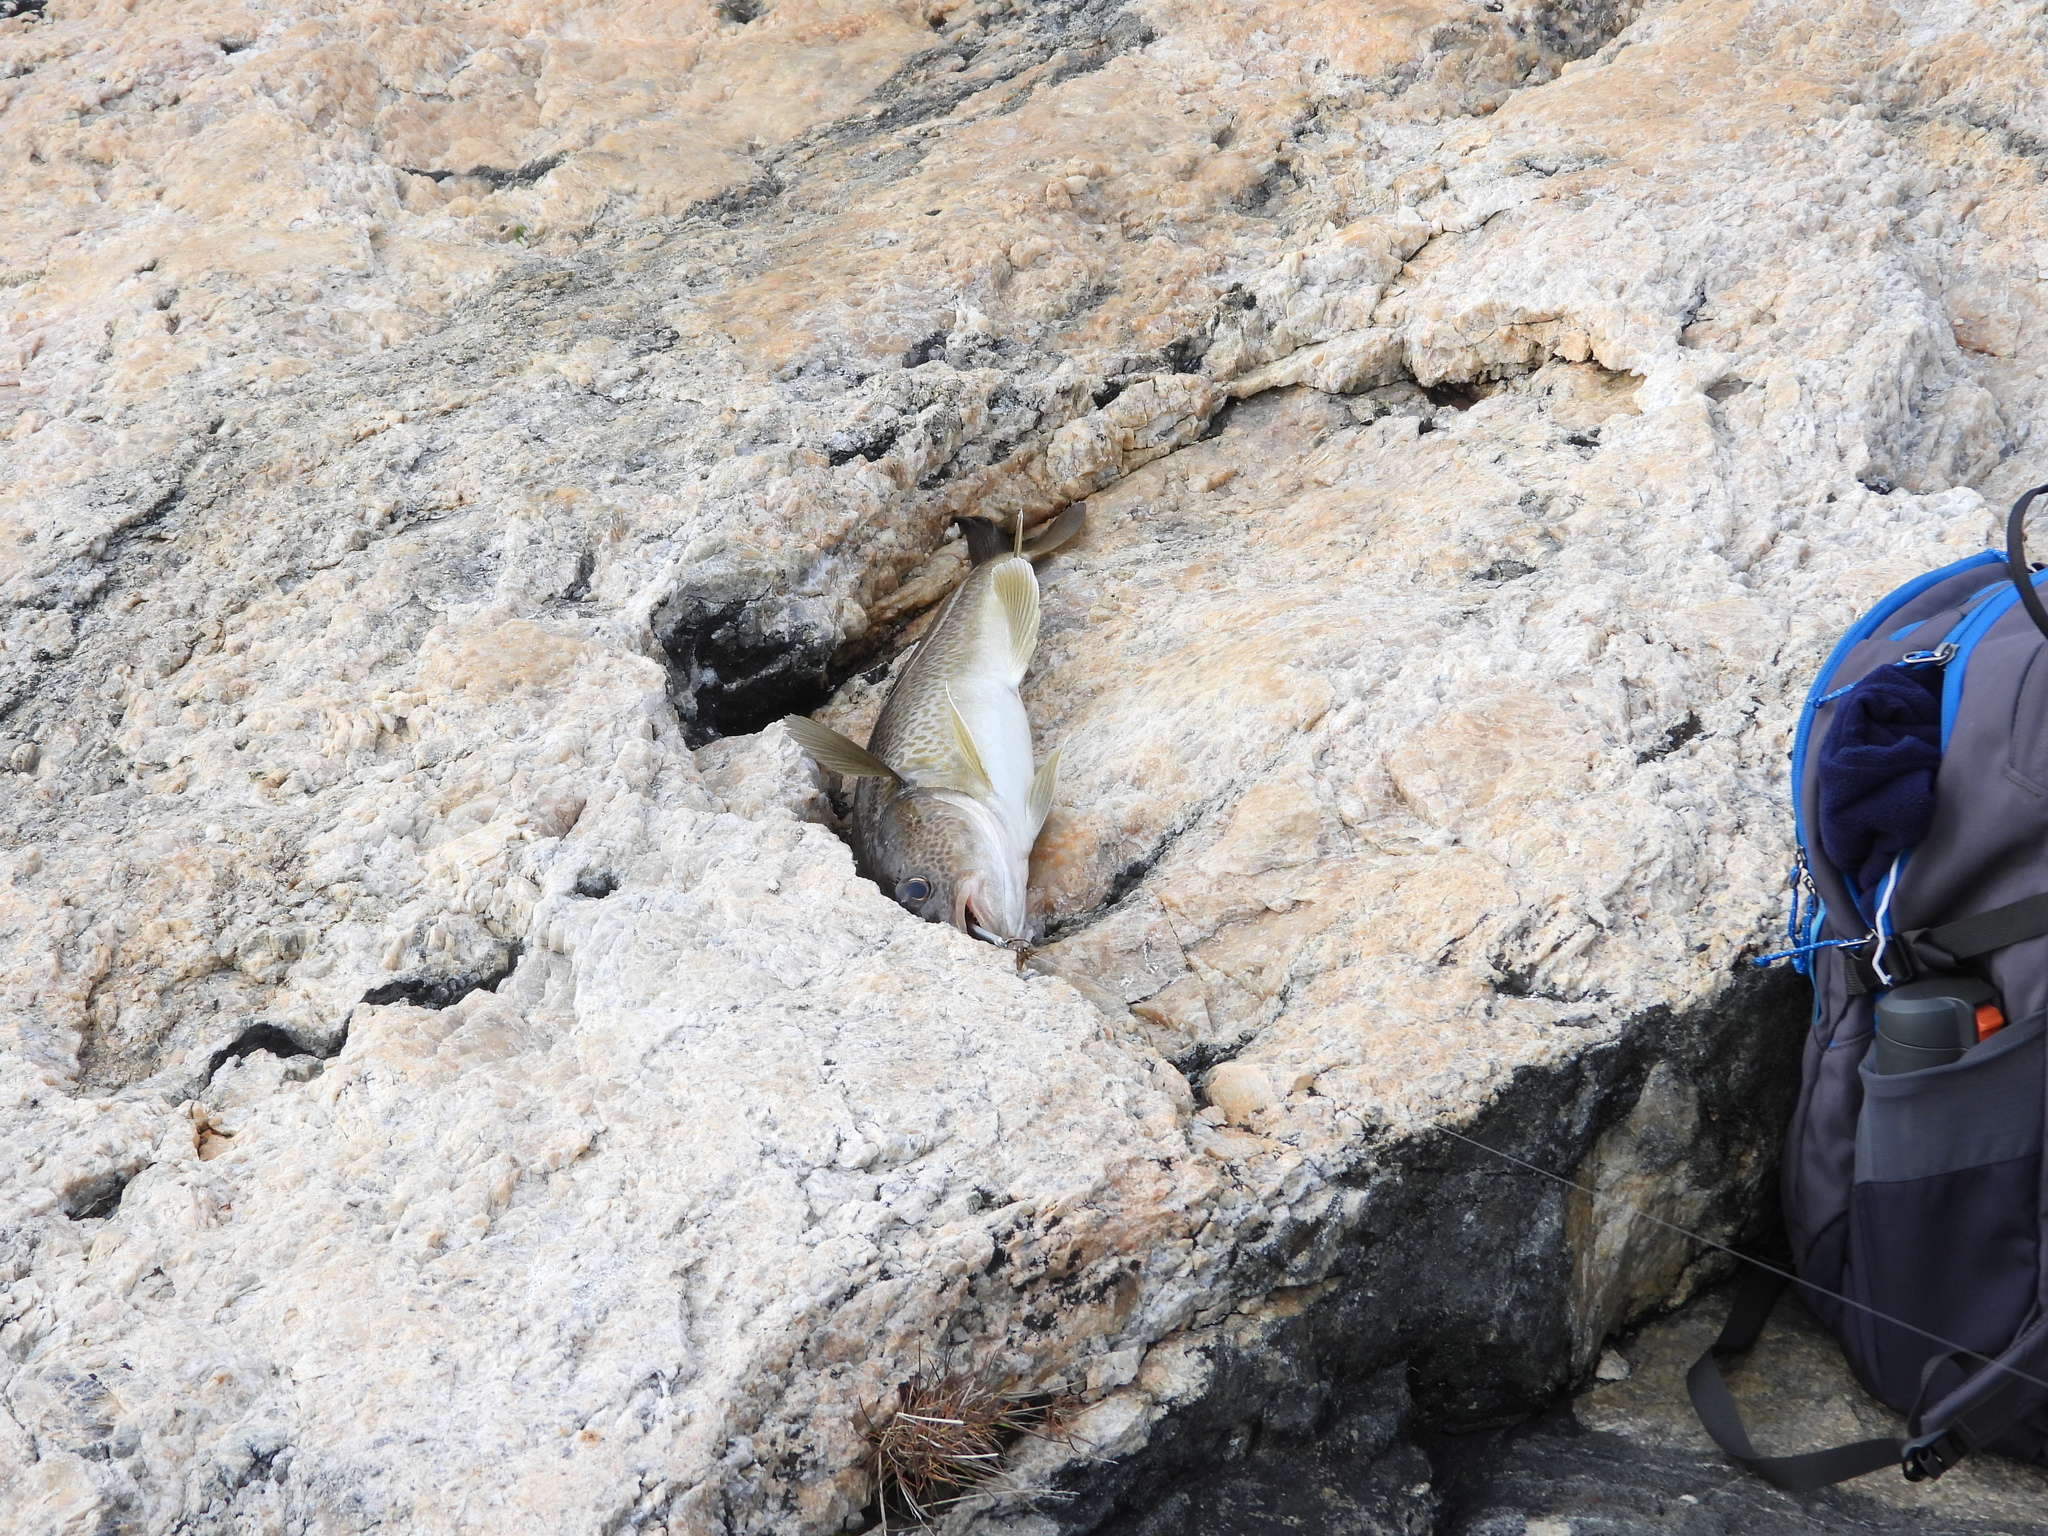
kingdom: Animalia
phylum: Chordata
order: Gadiformes
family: Gadidae
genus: Gadus
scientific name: Gadus morhua
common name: Atlantic cod
